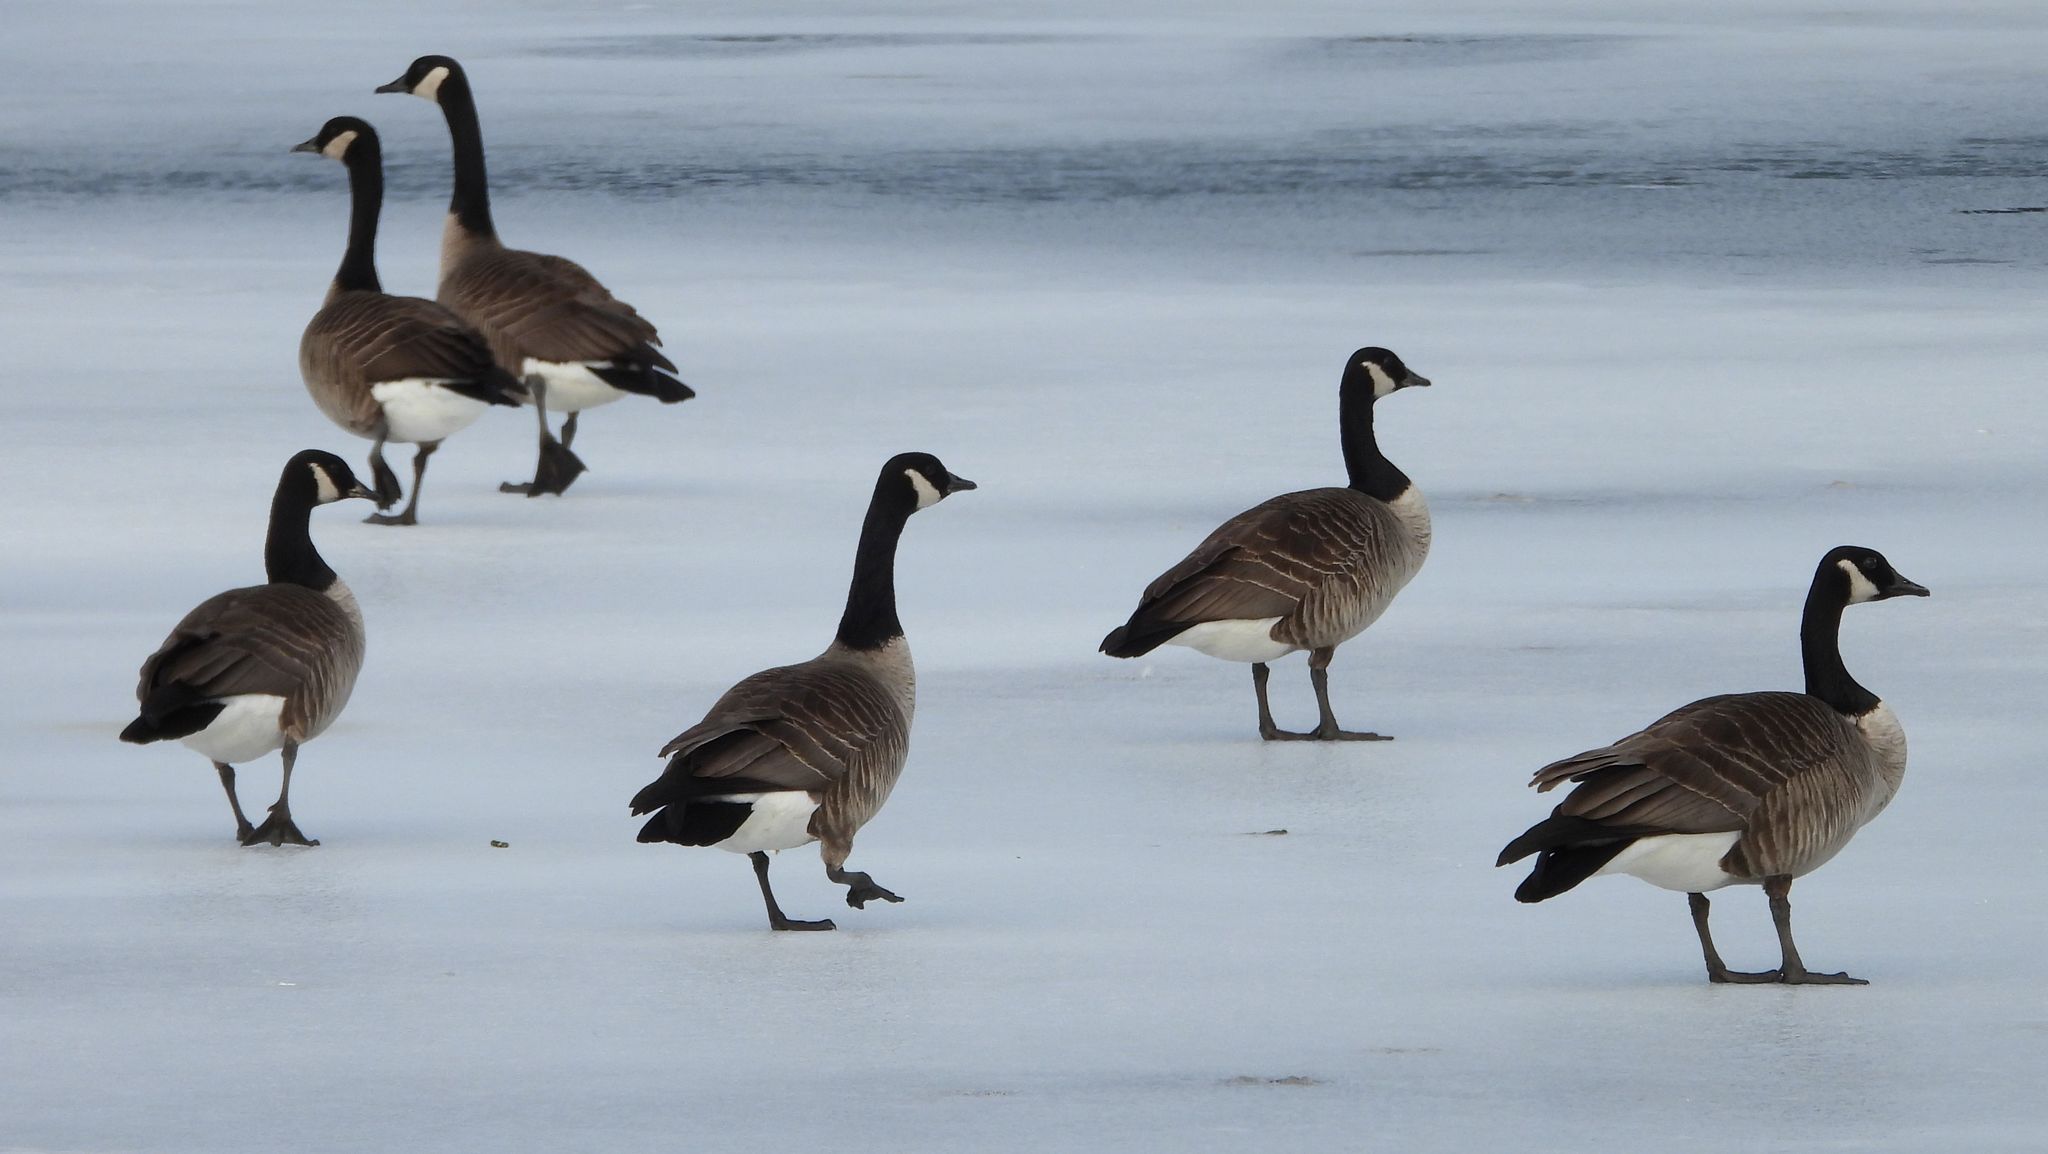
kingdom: Animalia
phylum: Chordata
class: Aves
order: Anseriformes
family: Anatidae
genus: Branta
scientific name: Branta canadensis
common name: Canada goose
